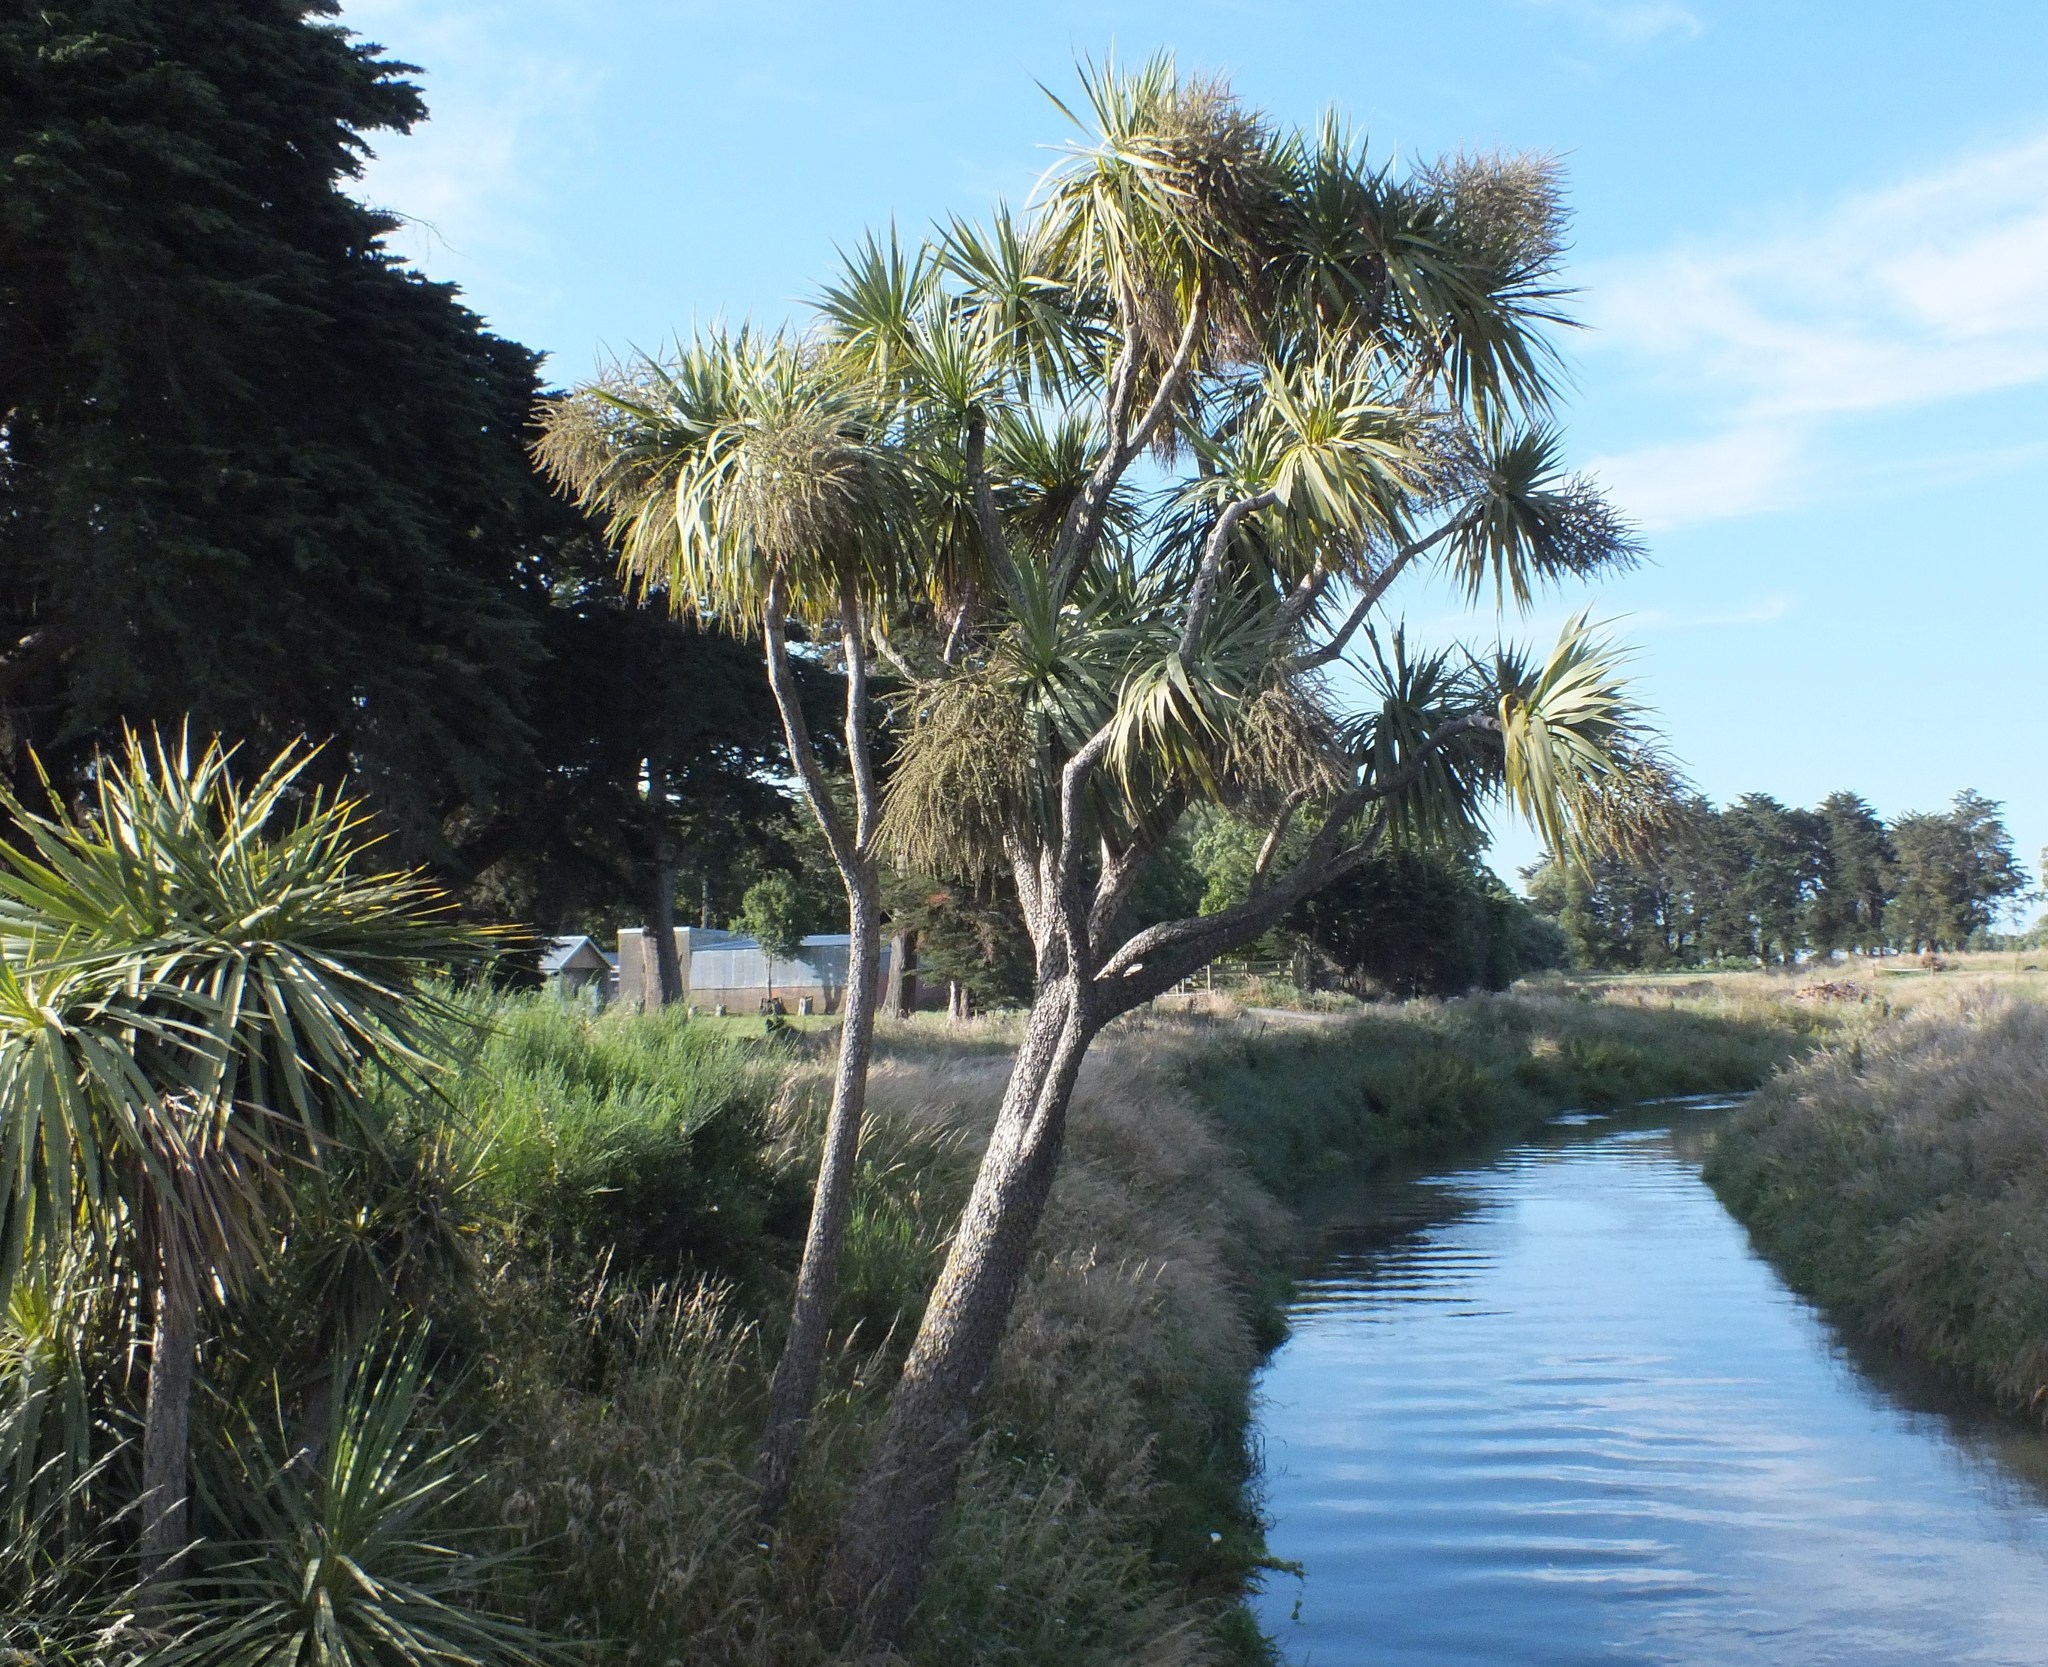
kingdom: Plantae
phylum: Tracheophyta
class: Liliopsida
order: Asparagales
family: Asparagaceae
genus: Cordyline
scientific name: Cordyline australis
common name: Cabbage-palm
